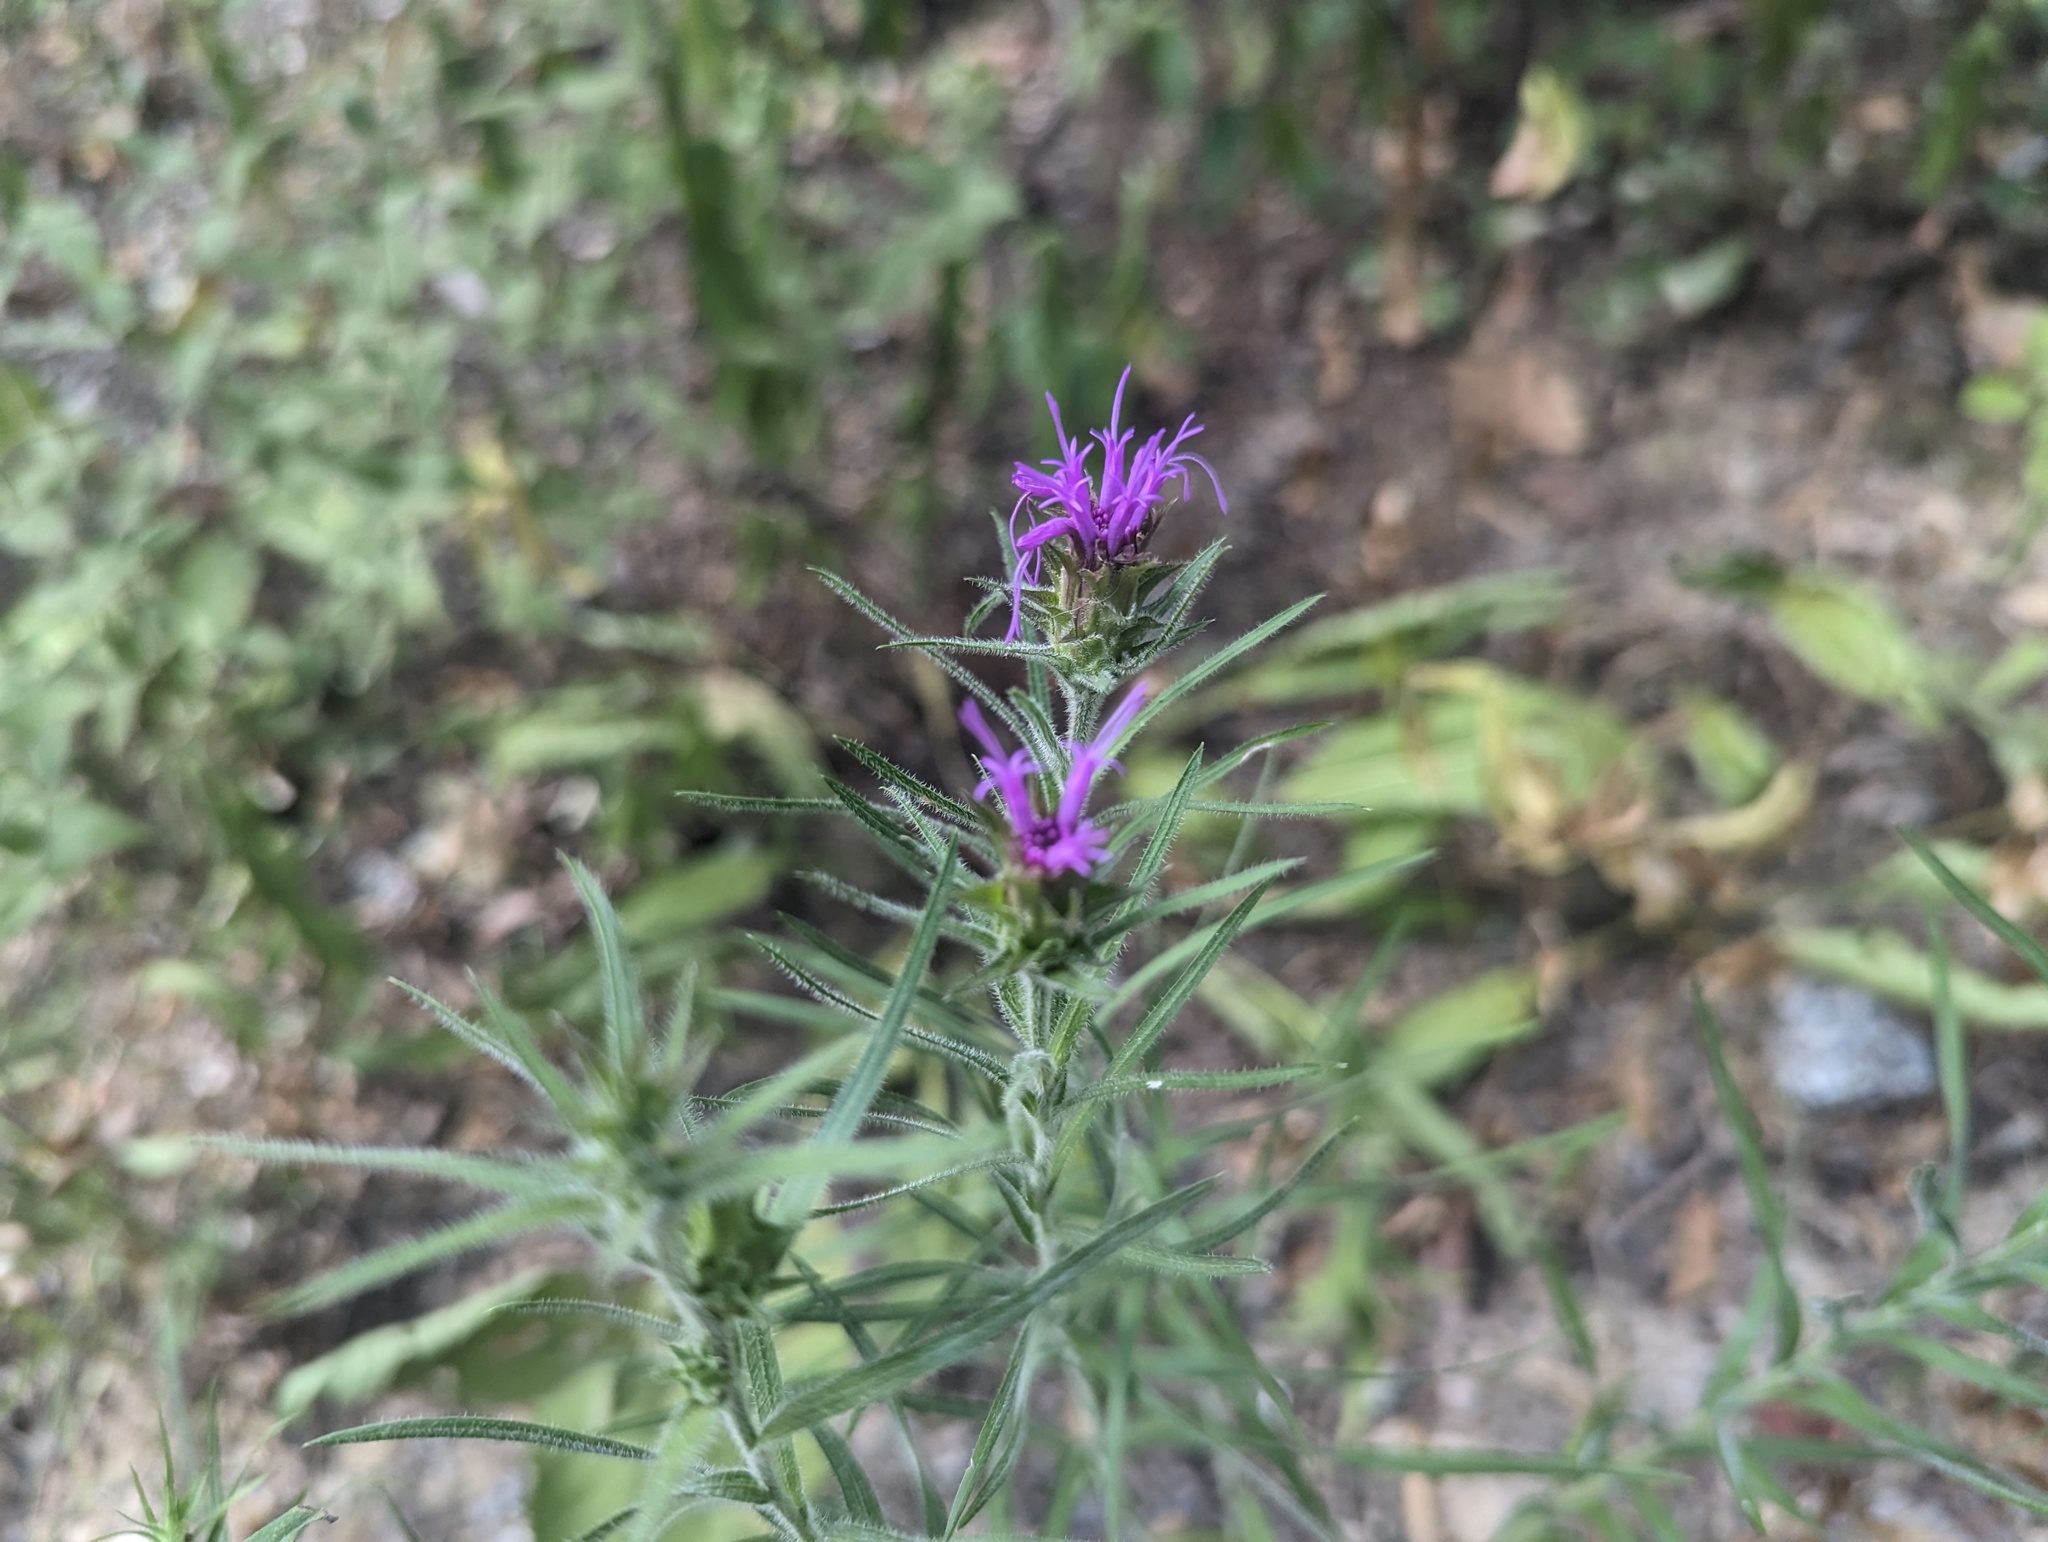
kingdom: Plantae
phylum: Tracheophyta
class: Magnoliopsida
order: Asterales
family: Asteraceae
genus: Liatris
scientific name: Liatris squarrosa
